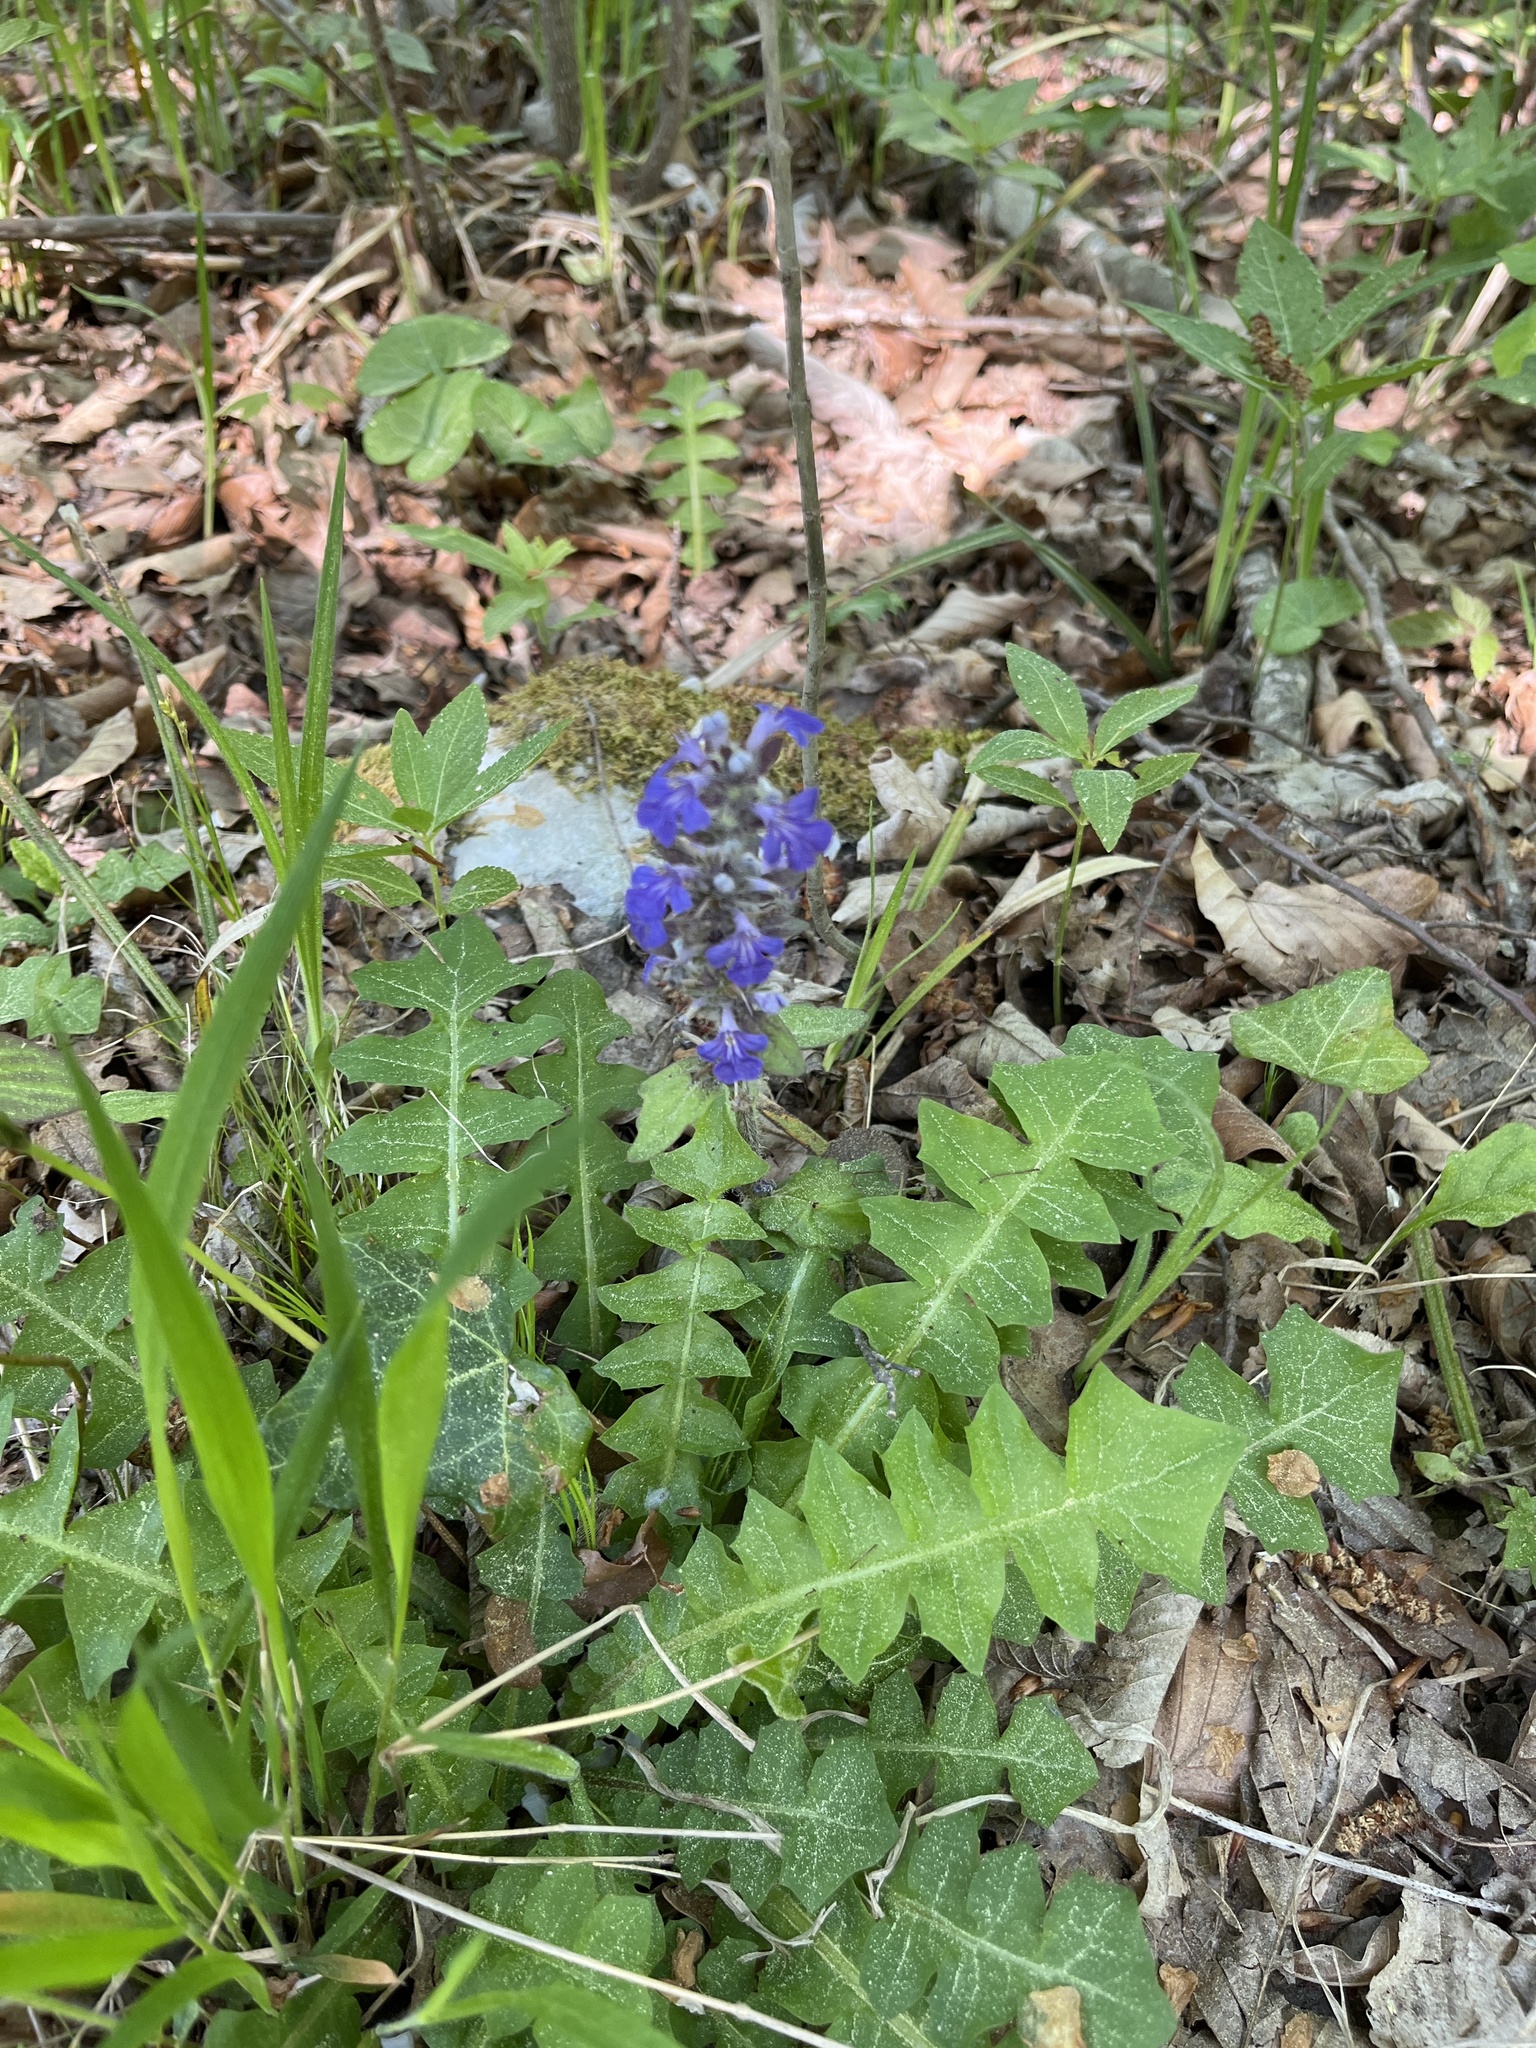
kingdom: Plantae
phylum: Tracheophyta
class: Magnoliopsida
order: Asterales
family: Asteraceae
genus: Aposeris
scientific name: Aposeris foetida
